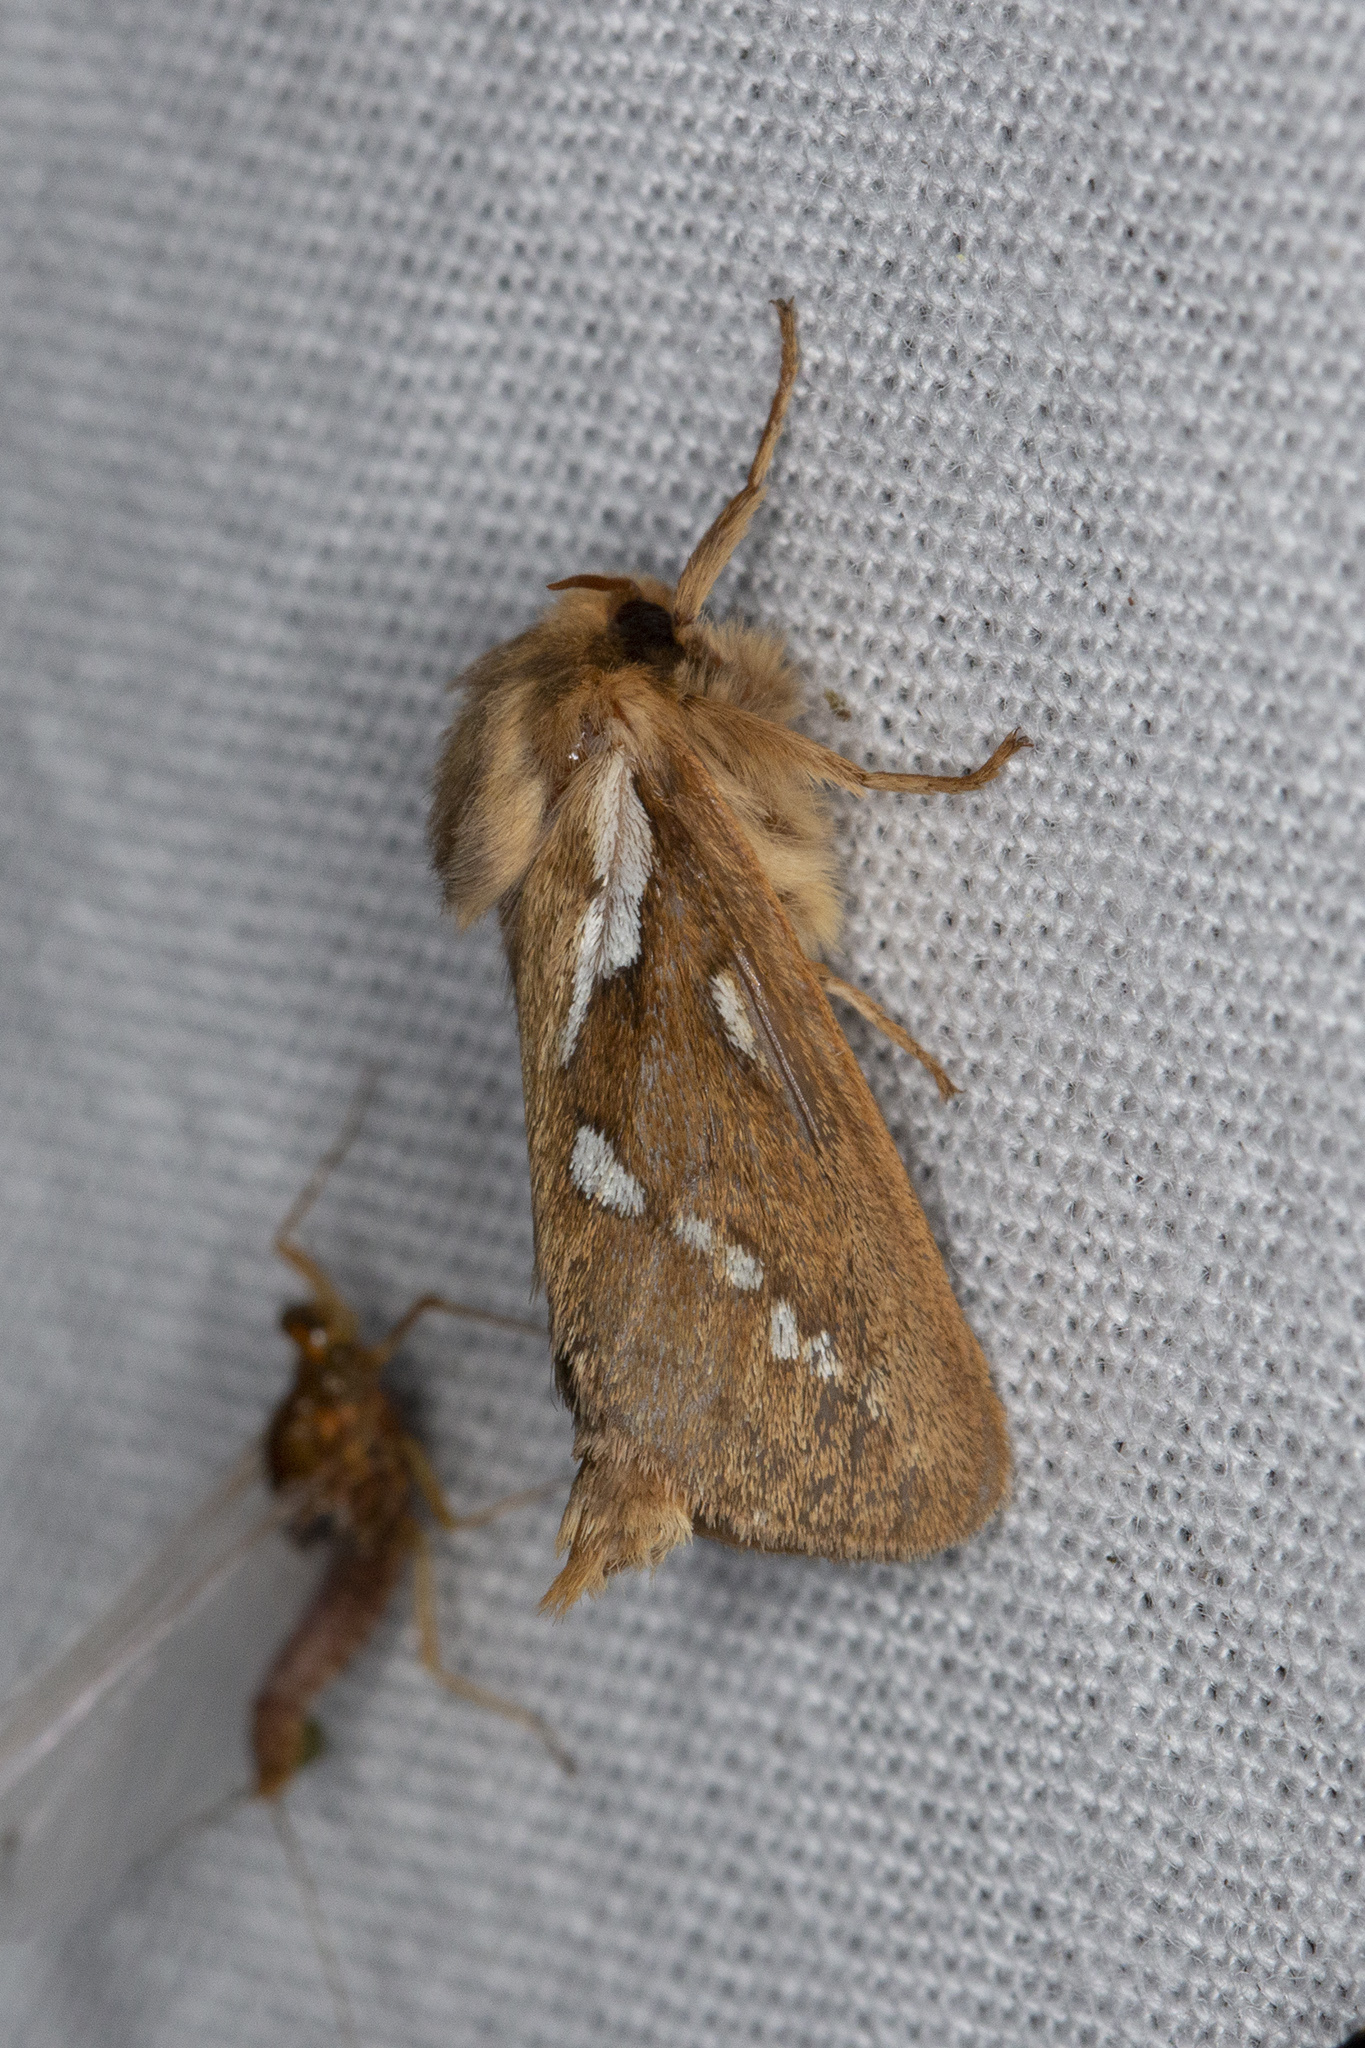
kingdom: Animalia
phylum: Arthropoda
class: Insecta
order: Lepidoptera
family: Hepialidae
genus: Triodia
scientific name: Triodia sylvina
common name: Orange swift
